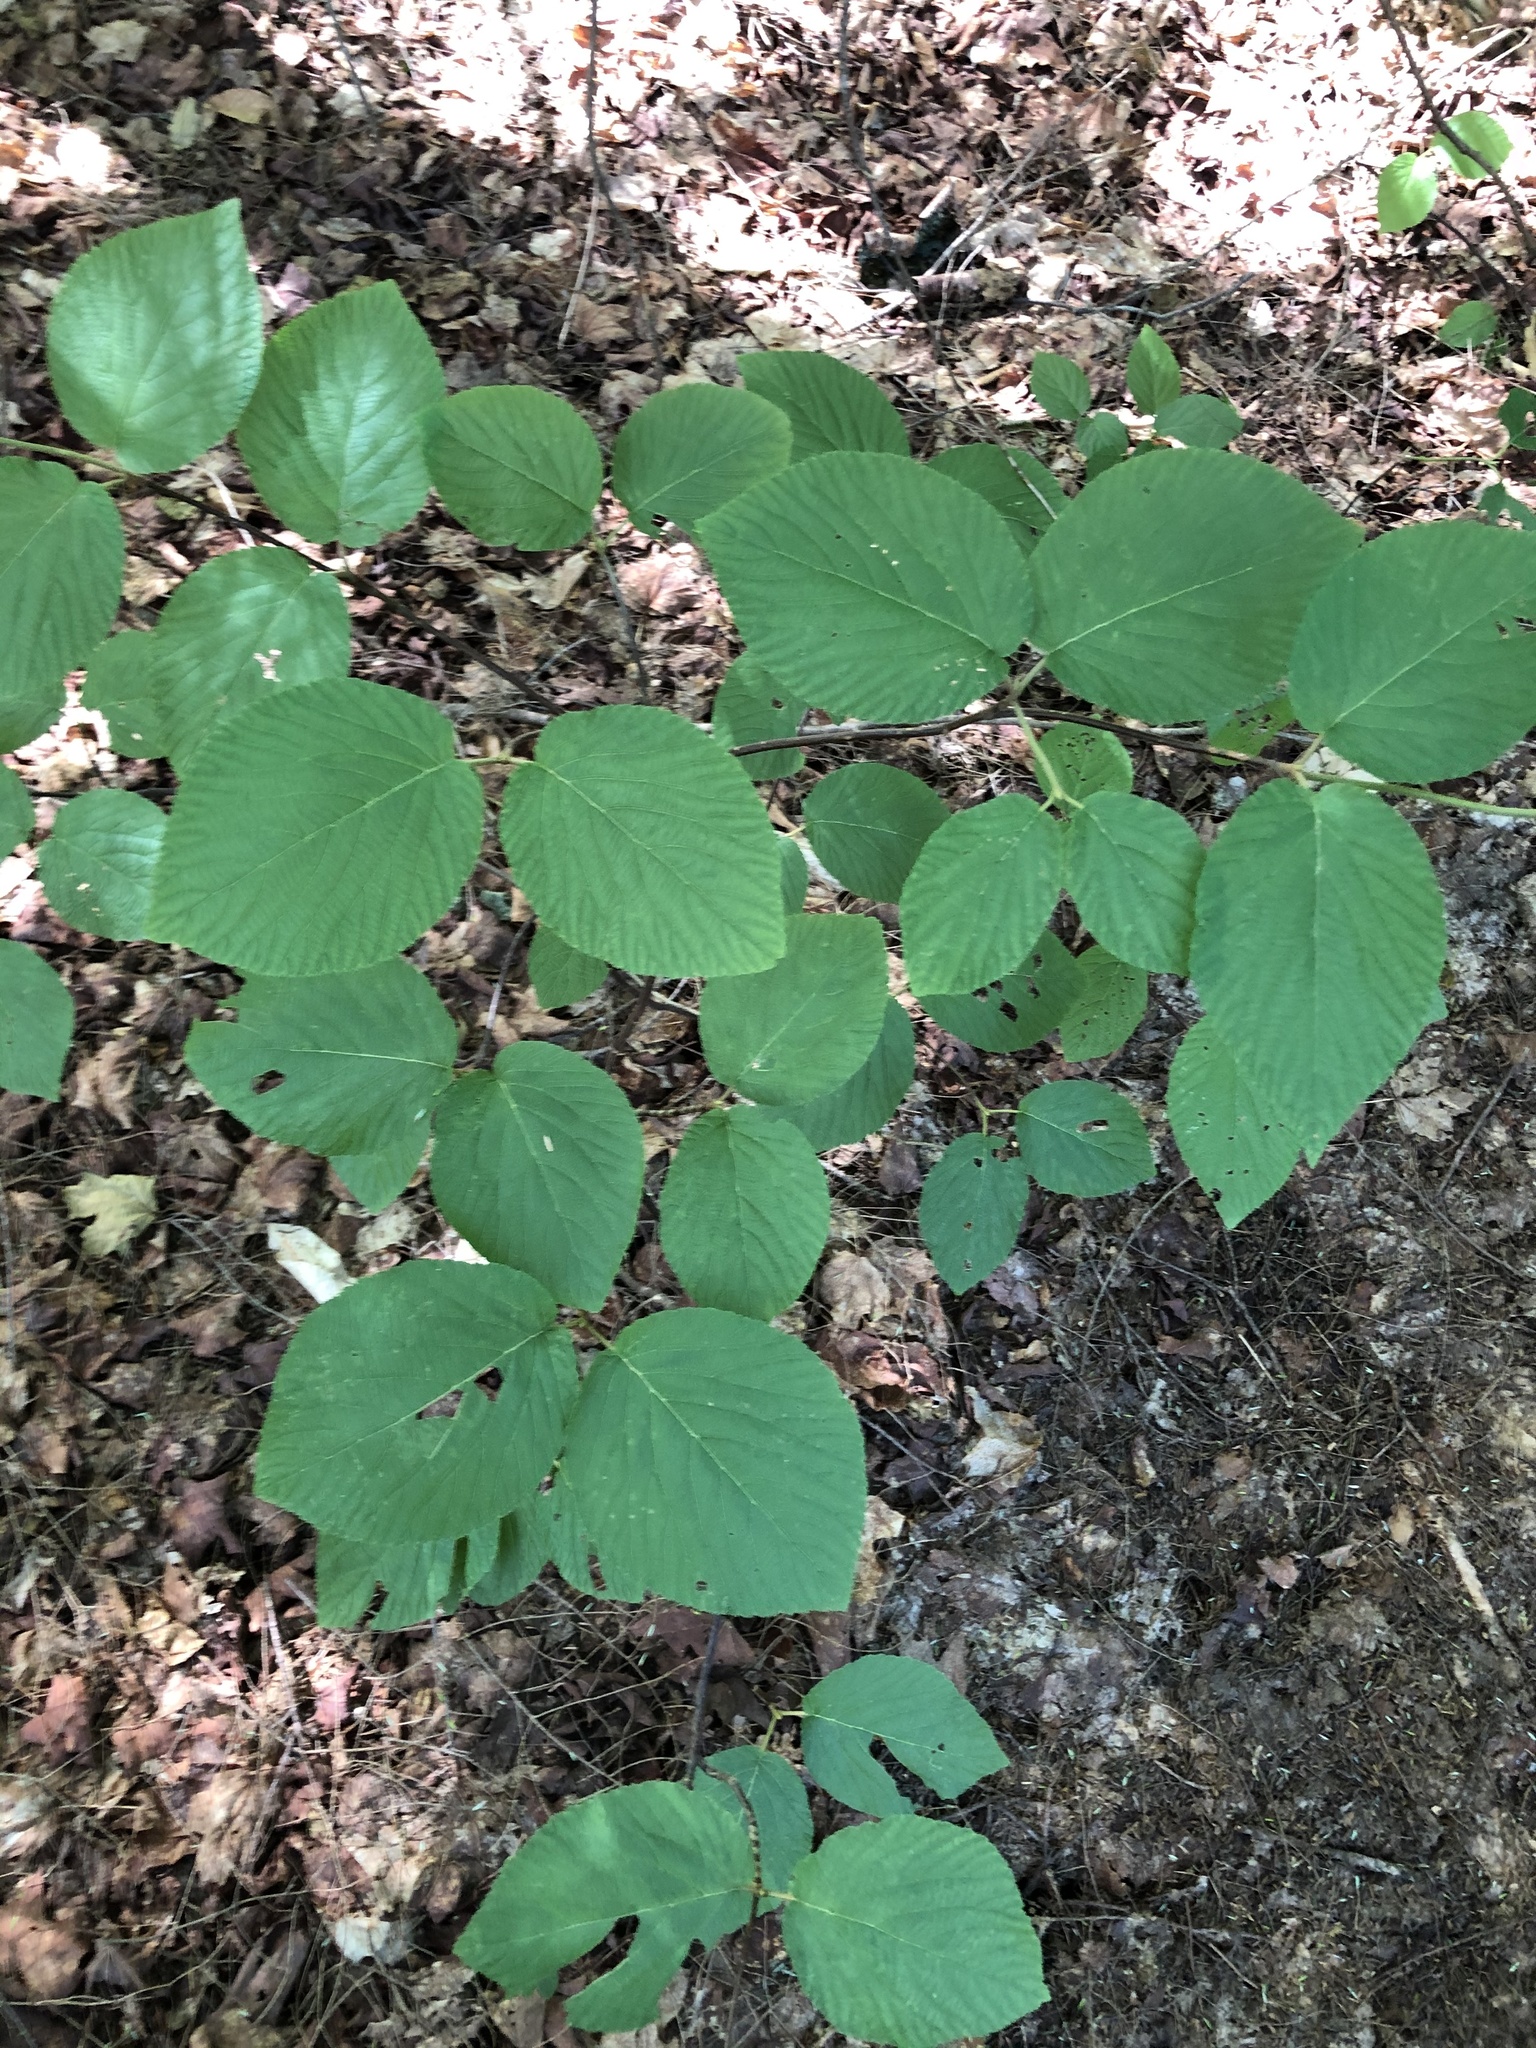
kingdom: Plantae
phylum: Tracheophyta
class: Magnoliopsida
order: Dipsacales
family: Viburnaceae
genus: Viburnum
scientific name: Viburnum lantanoides
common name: Hobblebush
